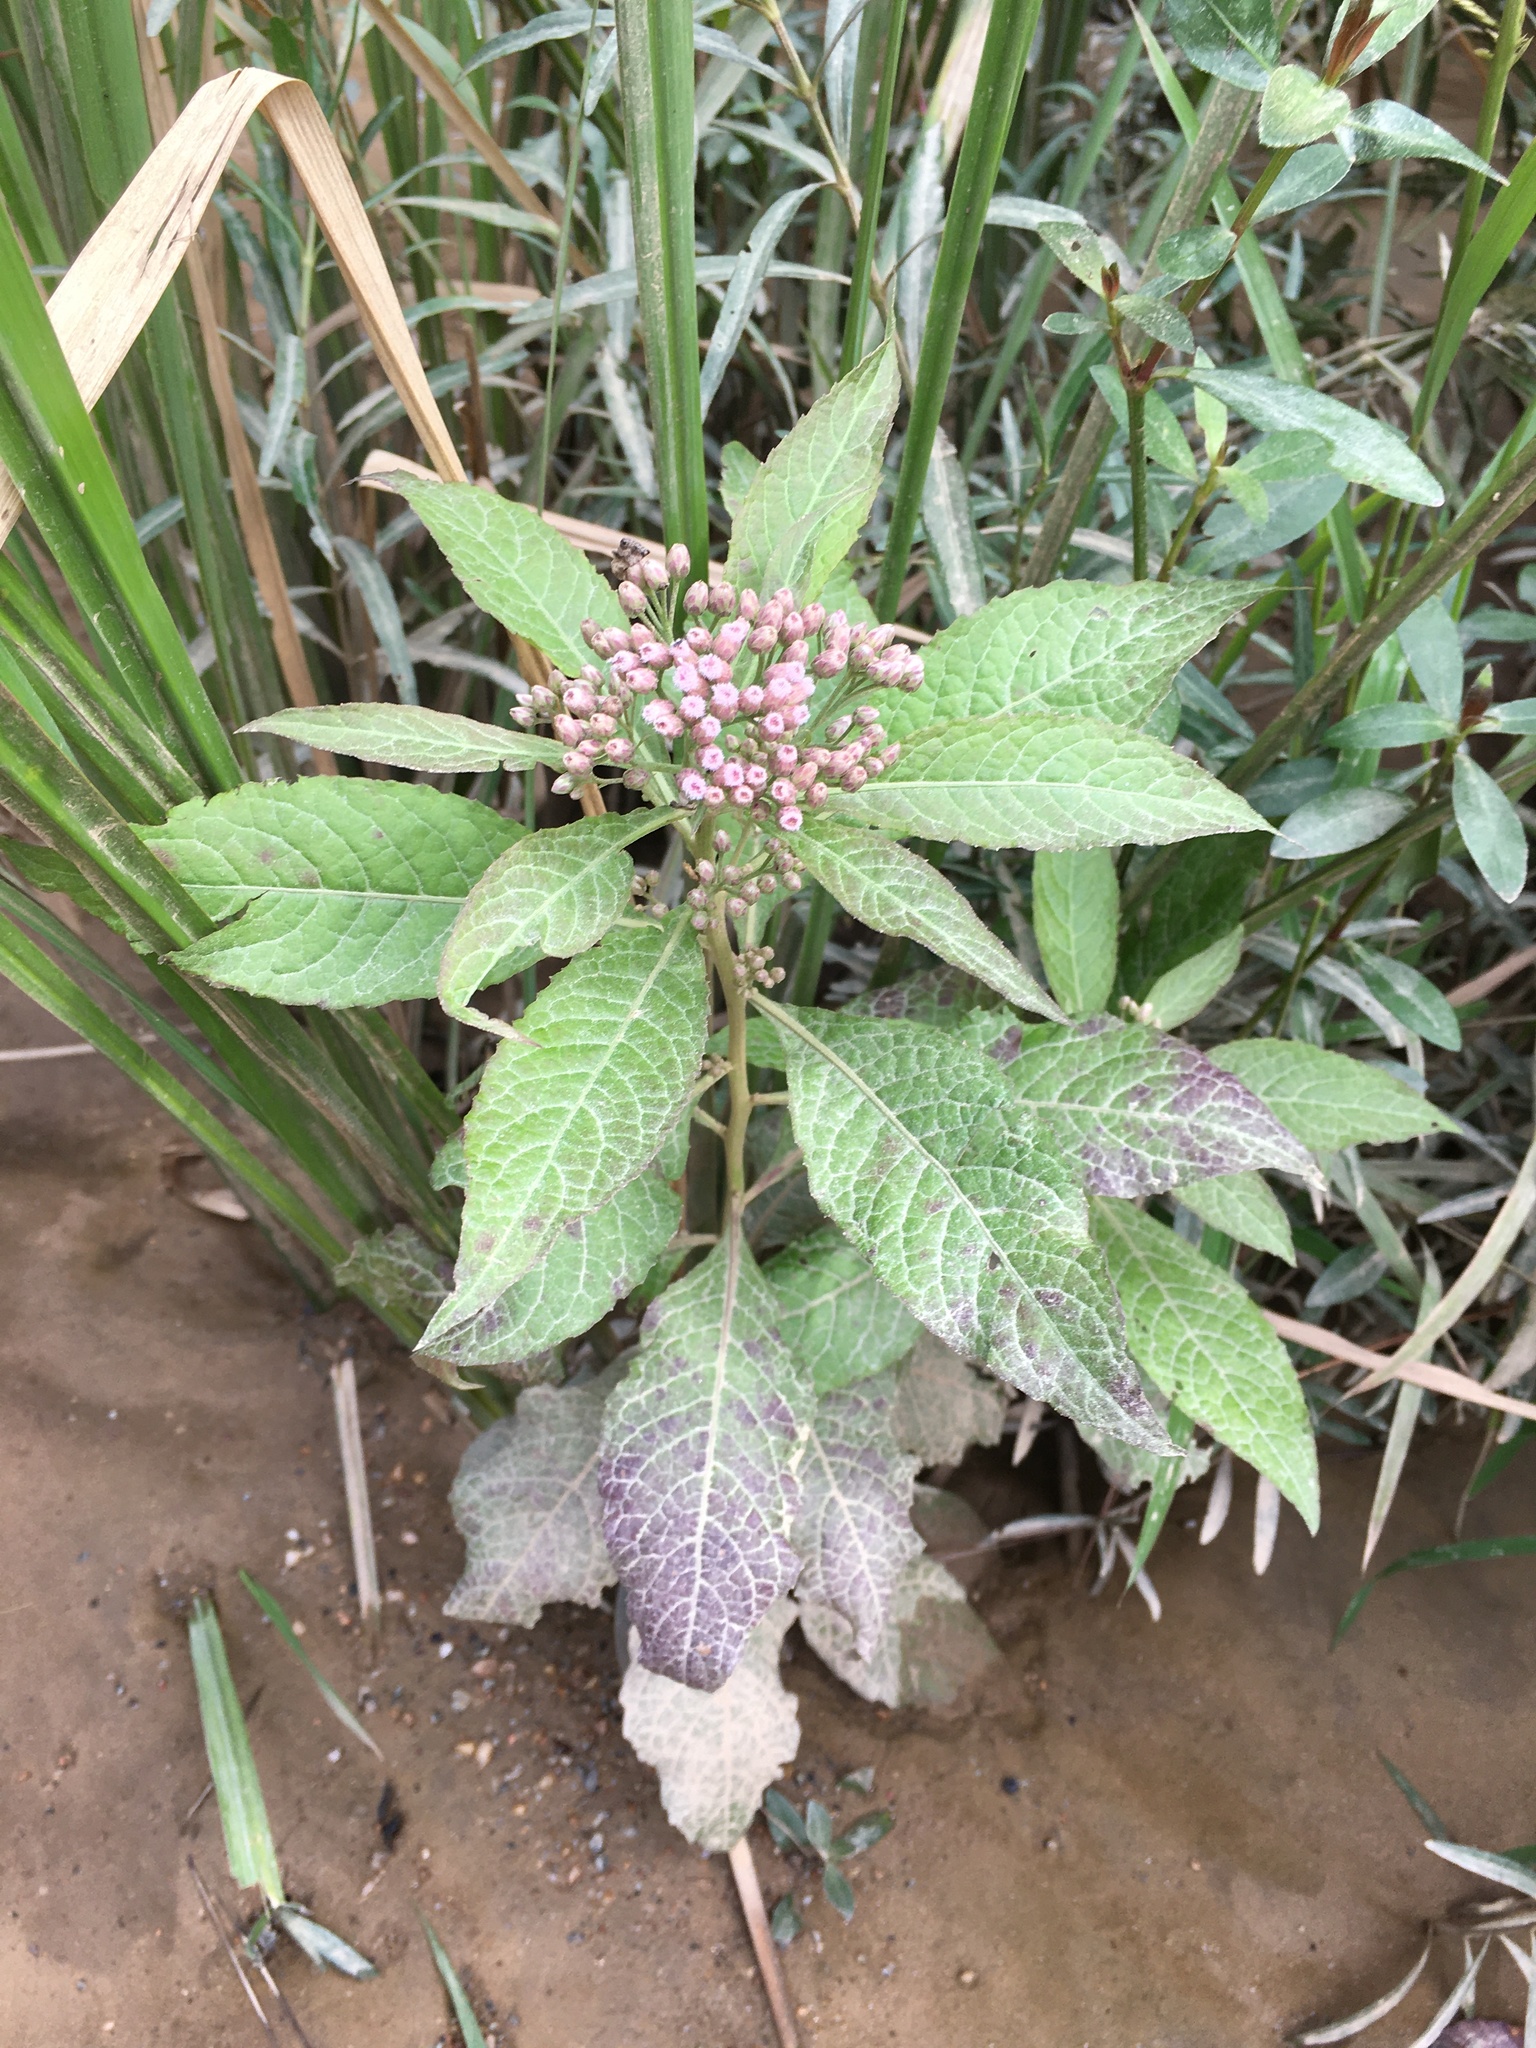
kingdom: Plantae
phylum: Tracheophyta
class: Magnoliopsida
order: Asterales
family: Asteraceae
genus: Pluchea
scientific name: Pluchea camphorata
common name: Camphor pluchea
